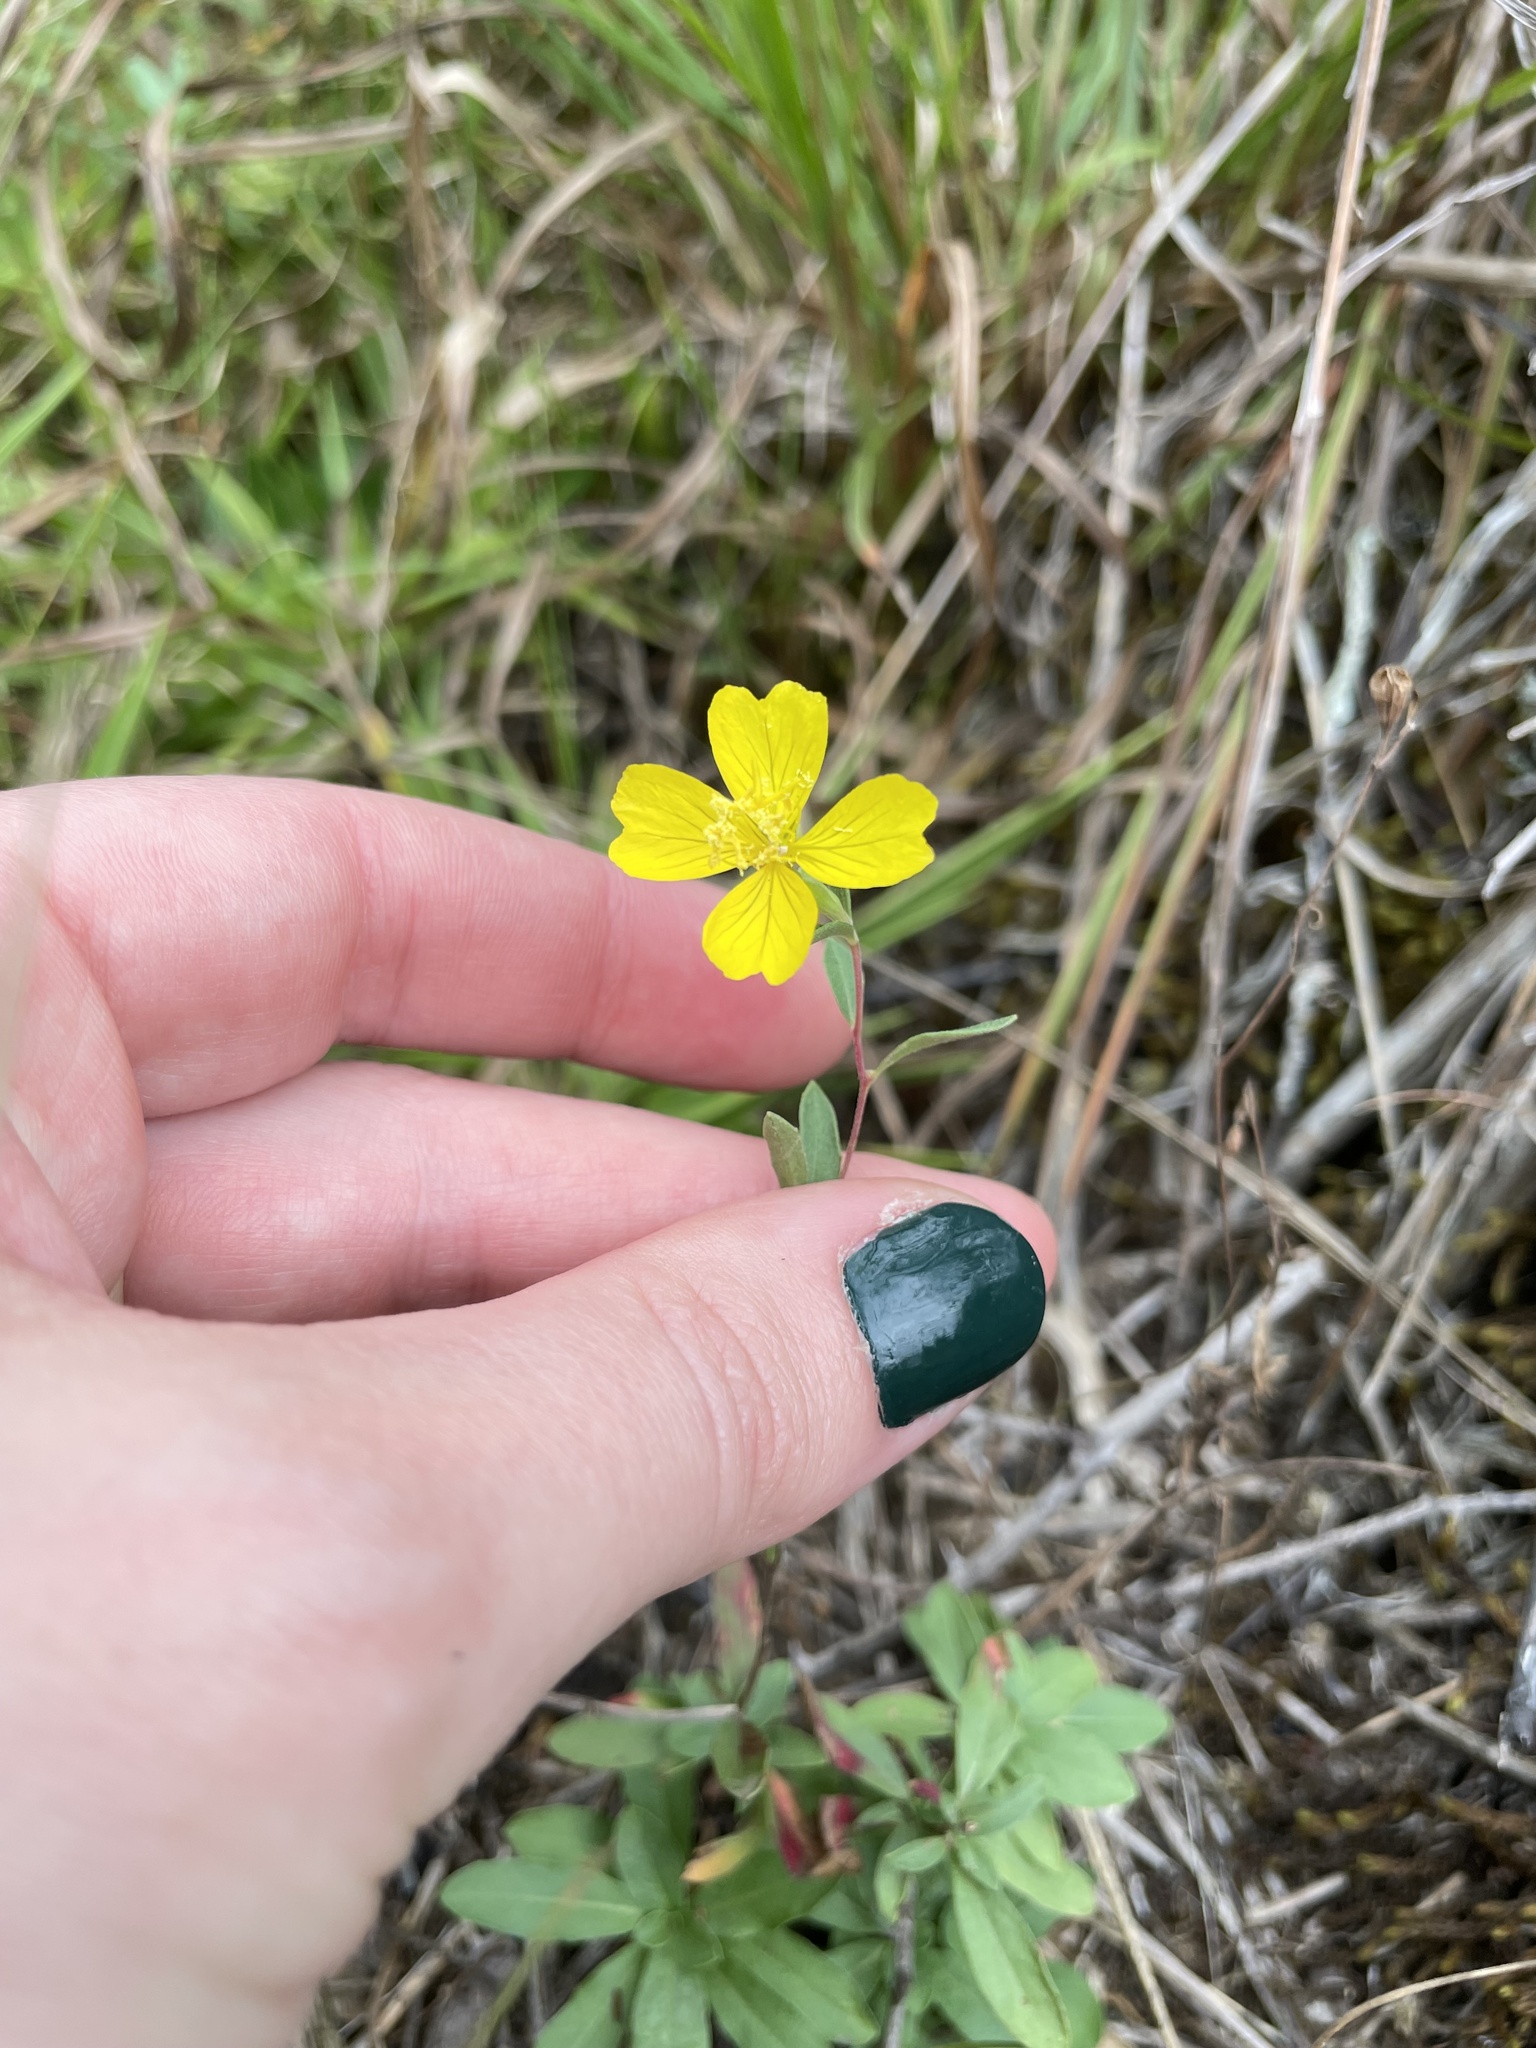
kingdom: Plantae
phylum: Tracheophyta
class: Magnoliopsida
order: Myrtales
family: Onagraceae
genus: Oenothera
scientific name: Oenothera fruticosa
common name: Southern sundrops
